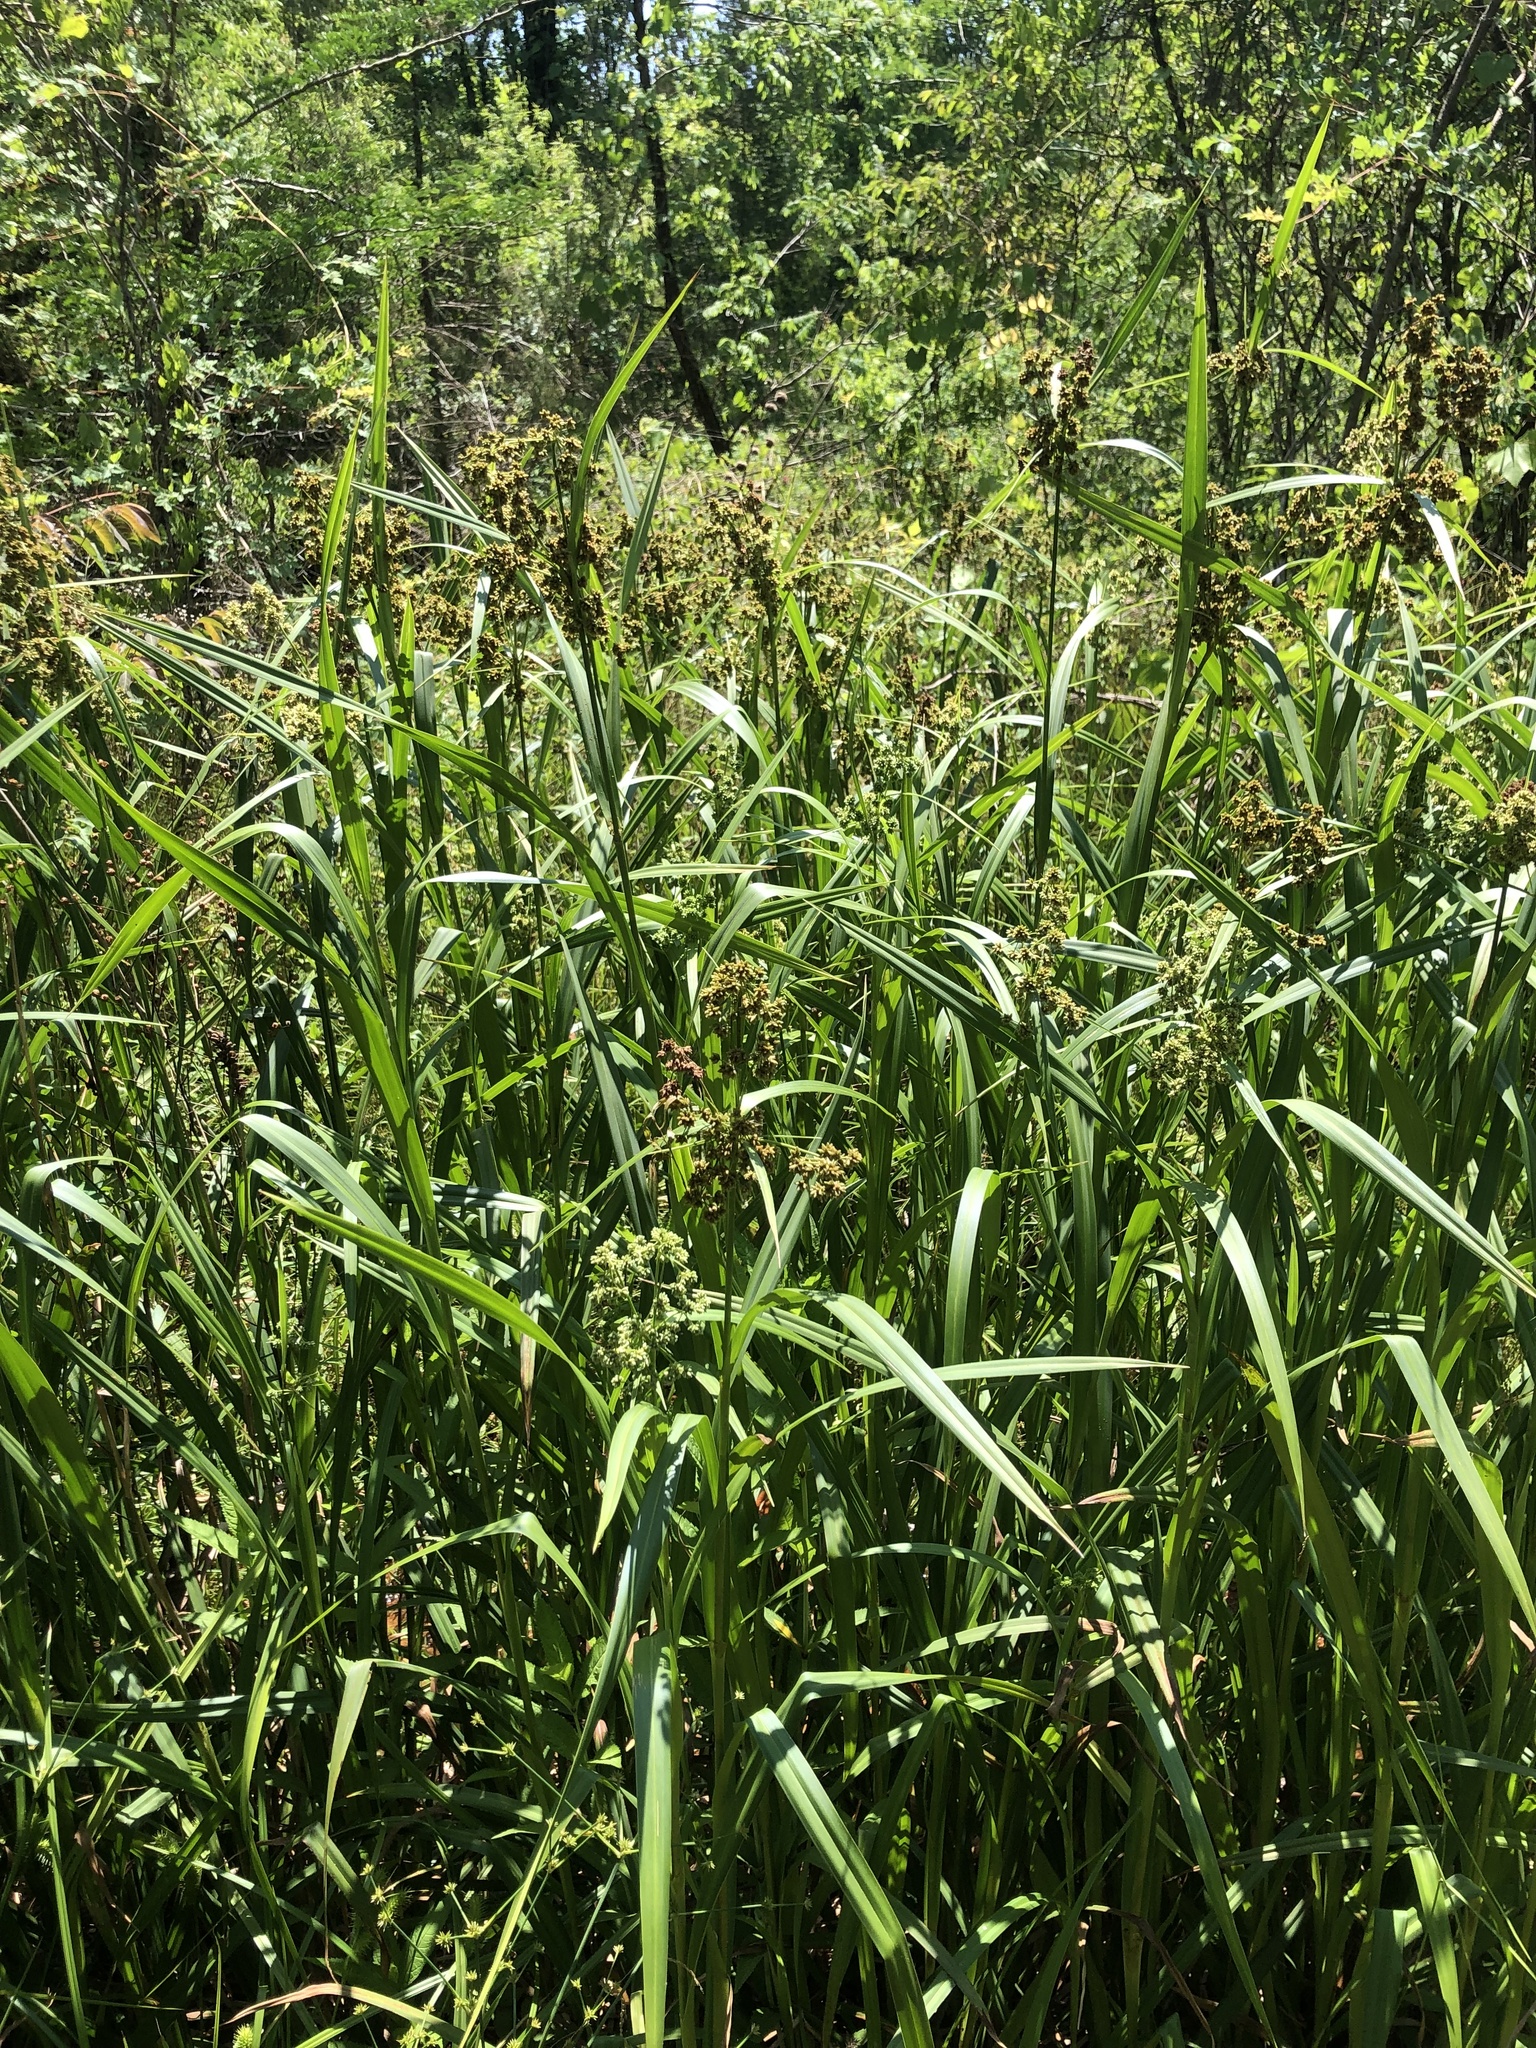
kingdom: Plantae
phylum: Tracheophyta
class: Liliopsida
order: Poales
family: Cyperaceae
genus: Scirpus
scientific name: Scirpus atrovirens
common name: Black bulrush
